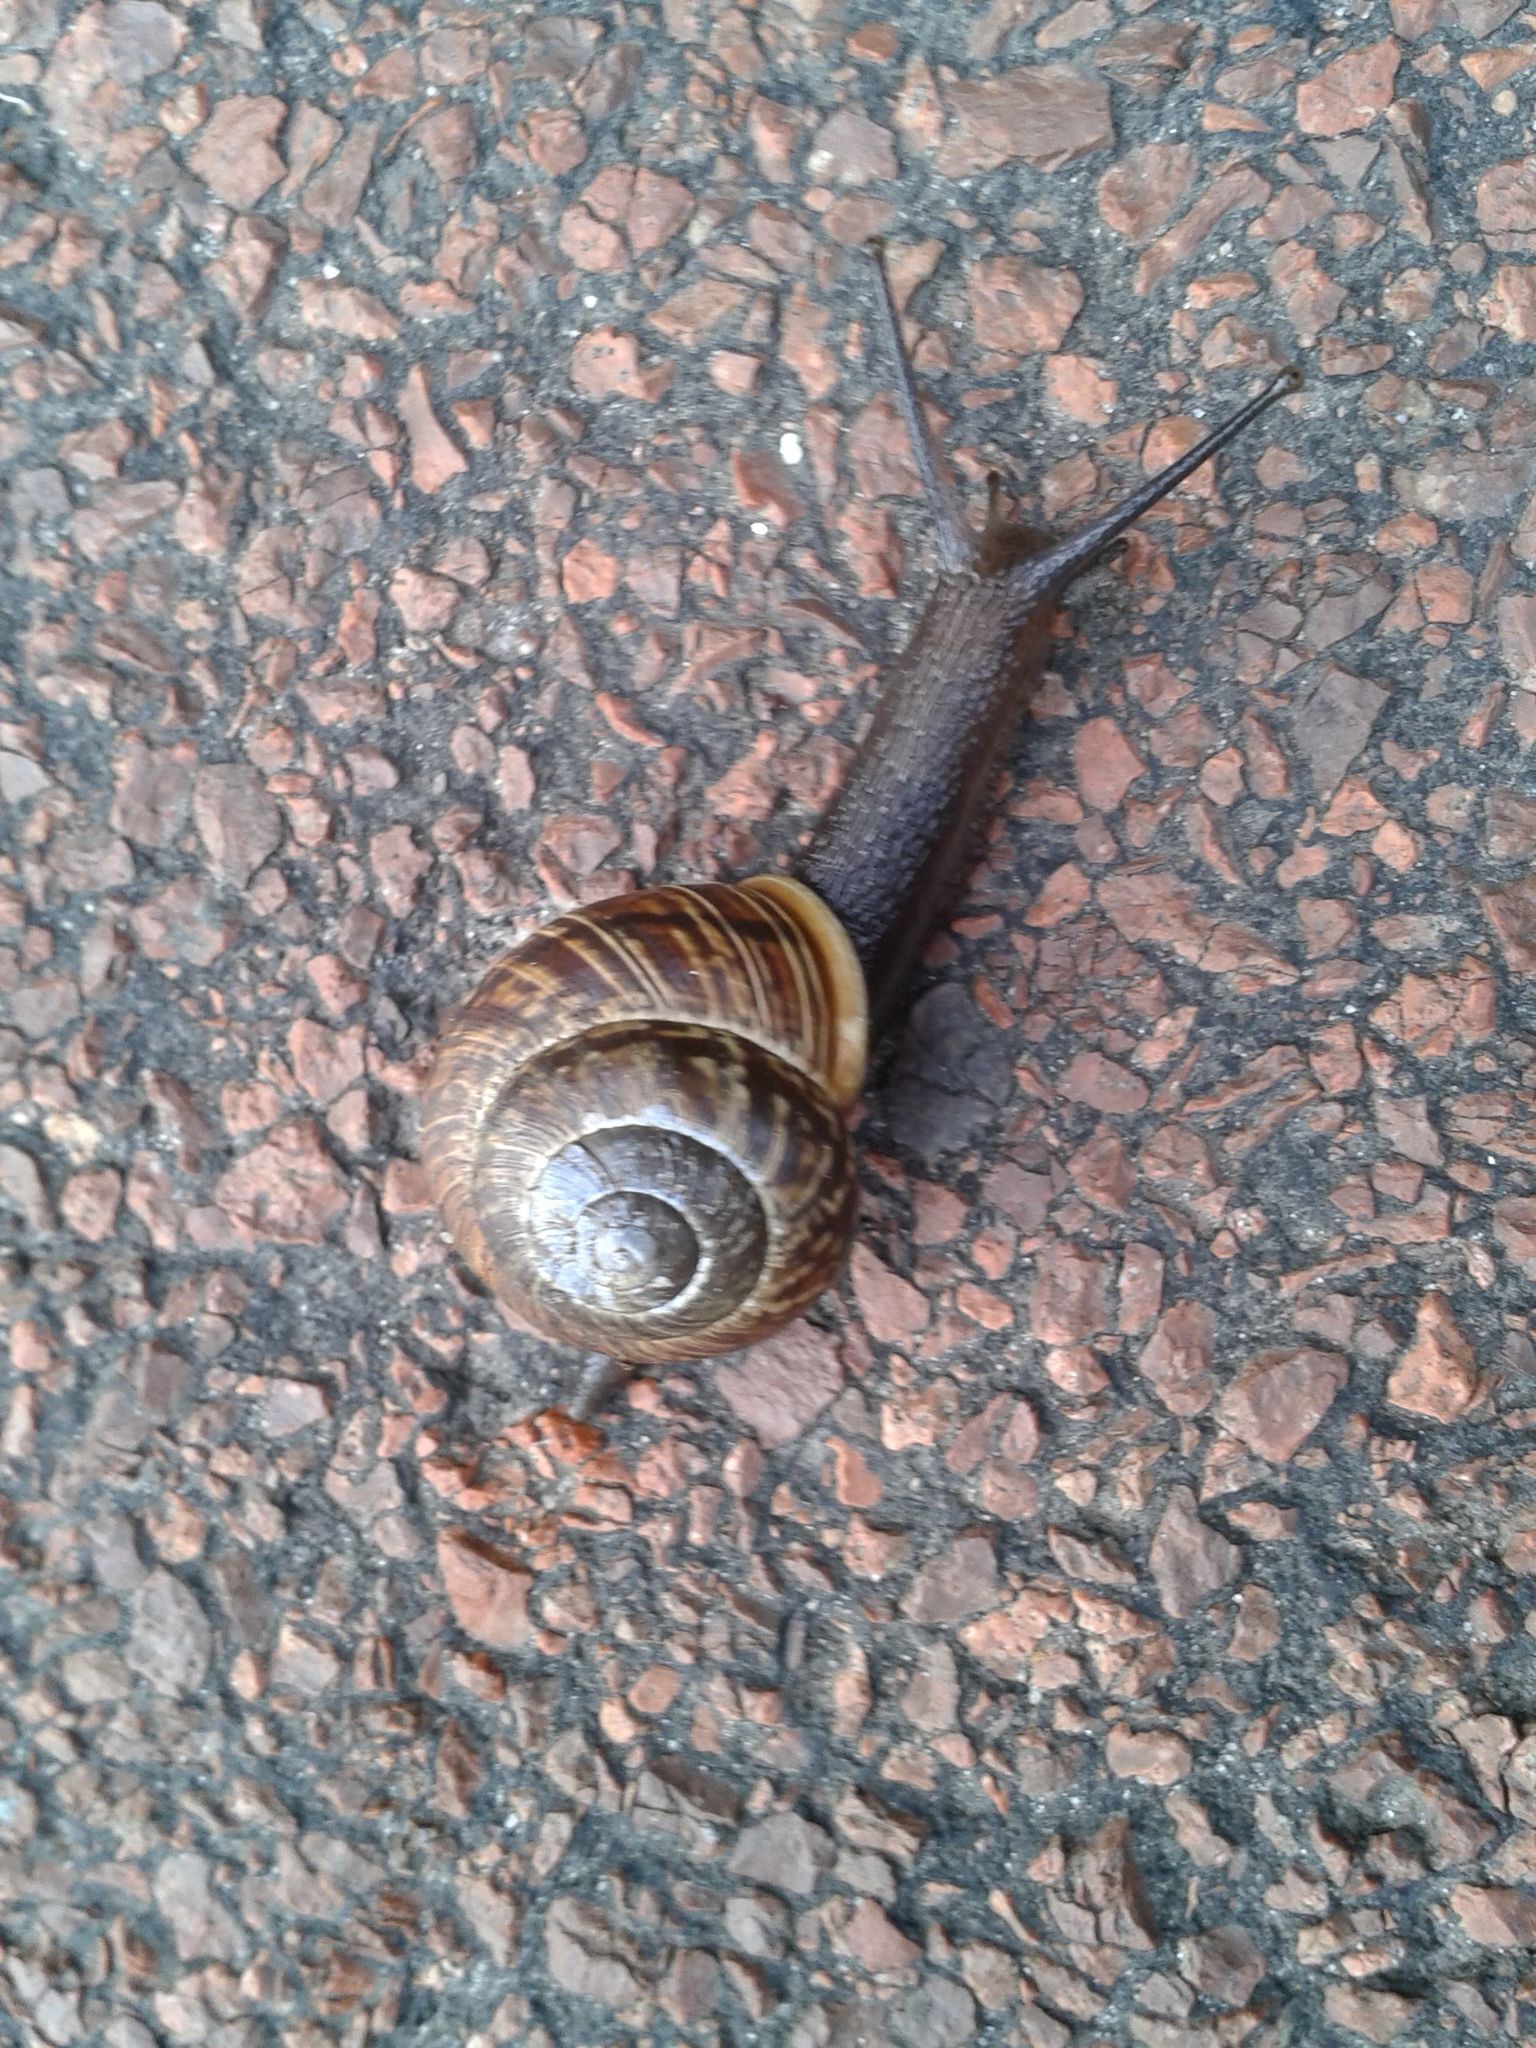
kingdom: Animalia
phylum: Mollusca
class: Gastropoda
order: Stylommatophora
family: Helicidae
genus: Arianta
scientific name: Arianta arbustorum
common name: Copse snail
